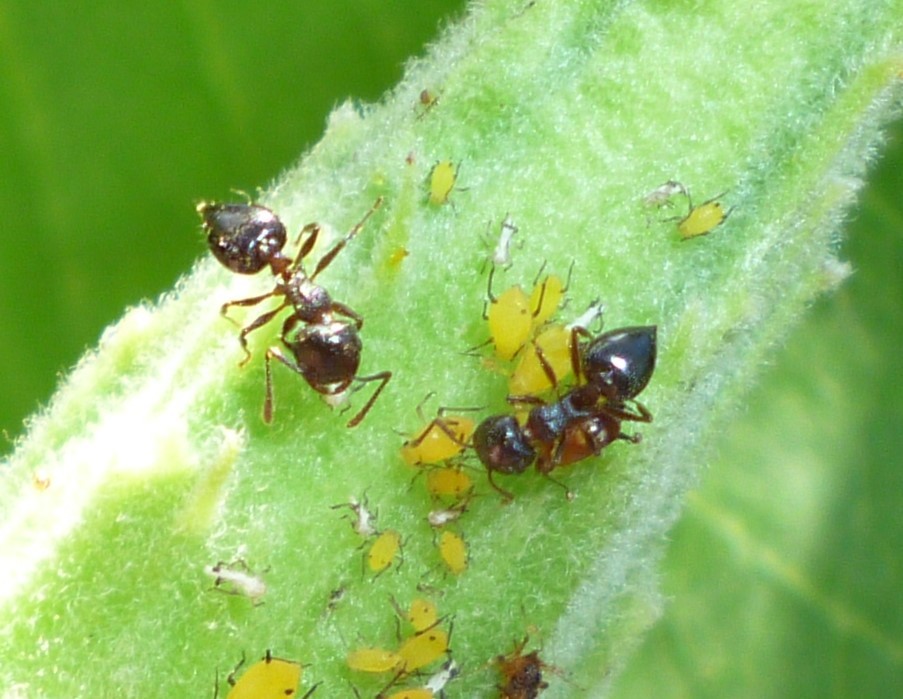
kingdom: Animalia
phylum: Arthropoda
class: Insecta
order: Hymenoptera
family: Formicidae
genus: Crematogaster
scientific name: Crematogaster
